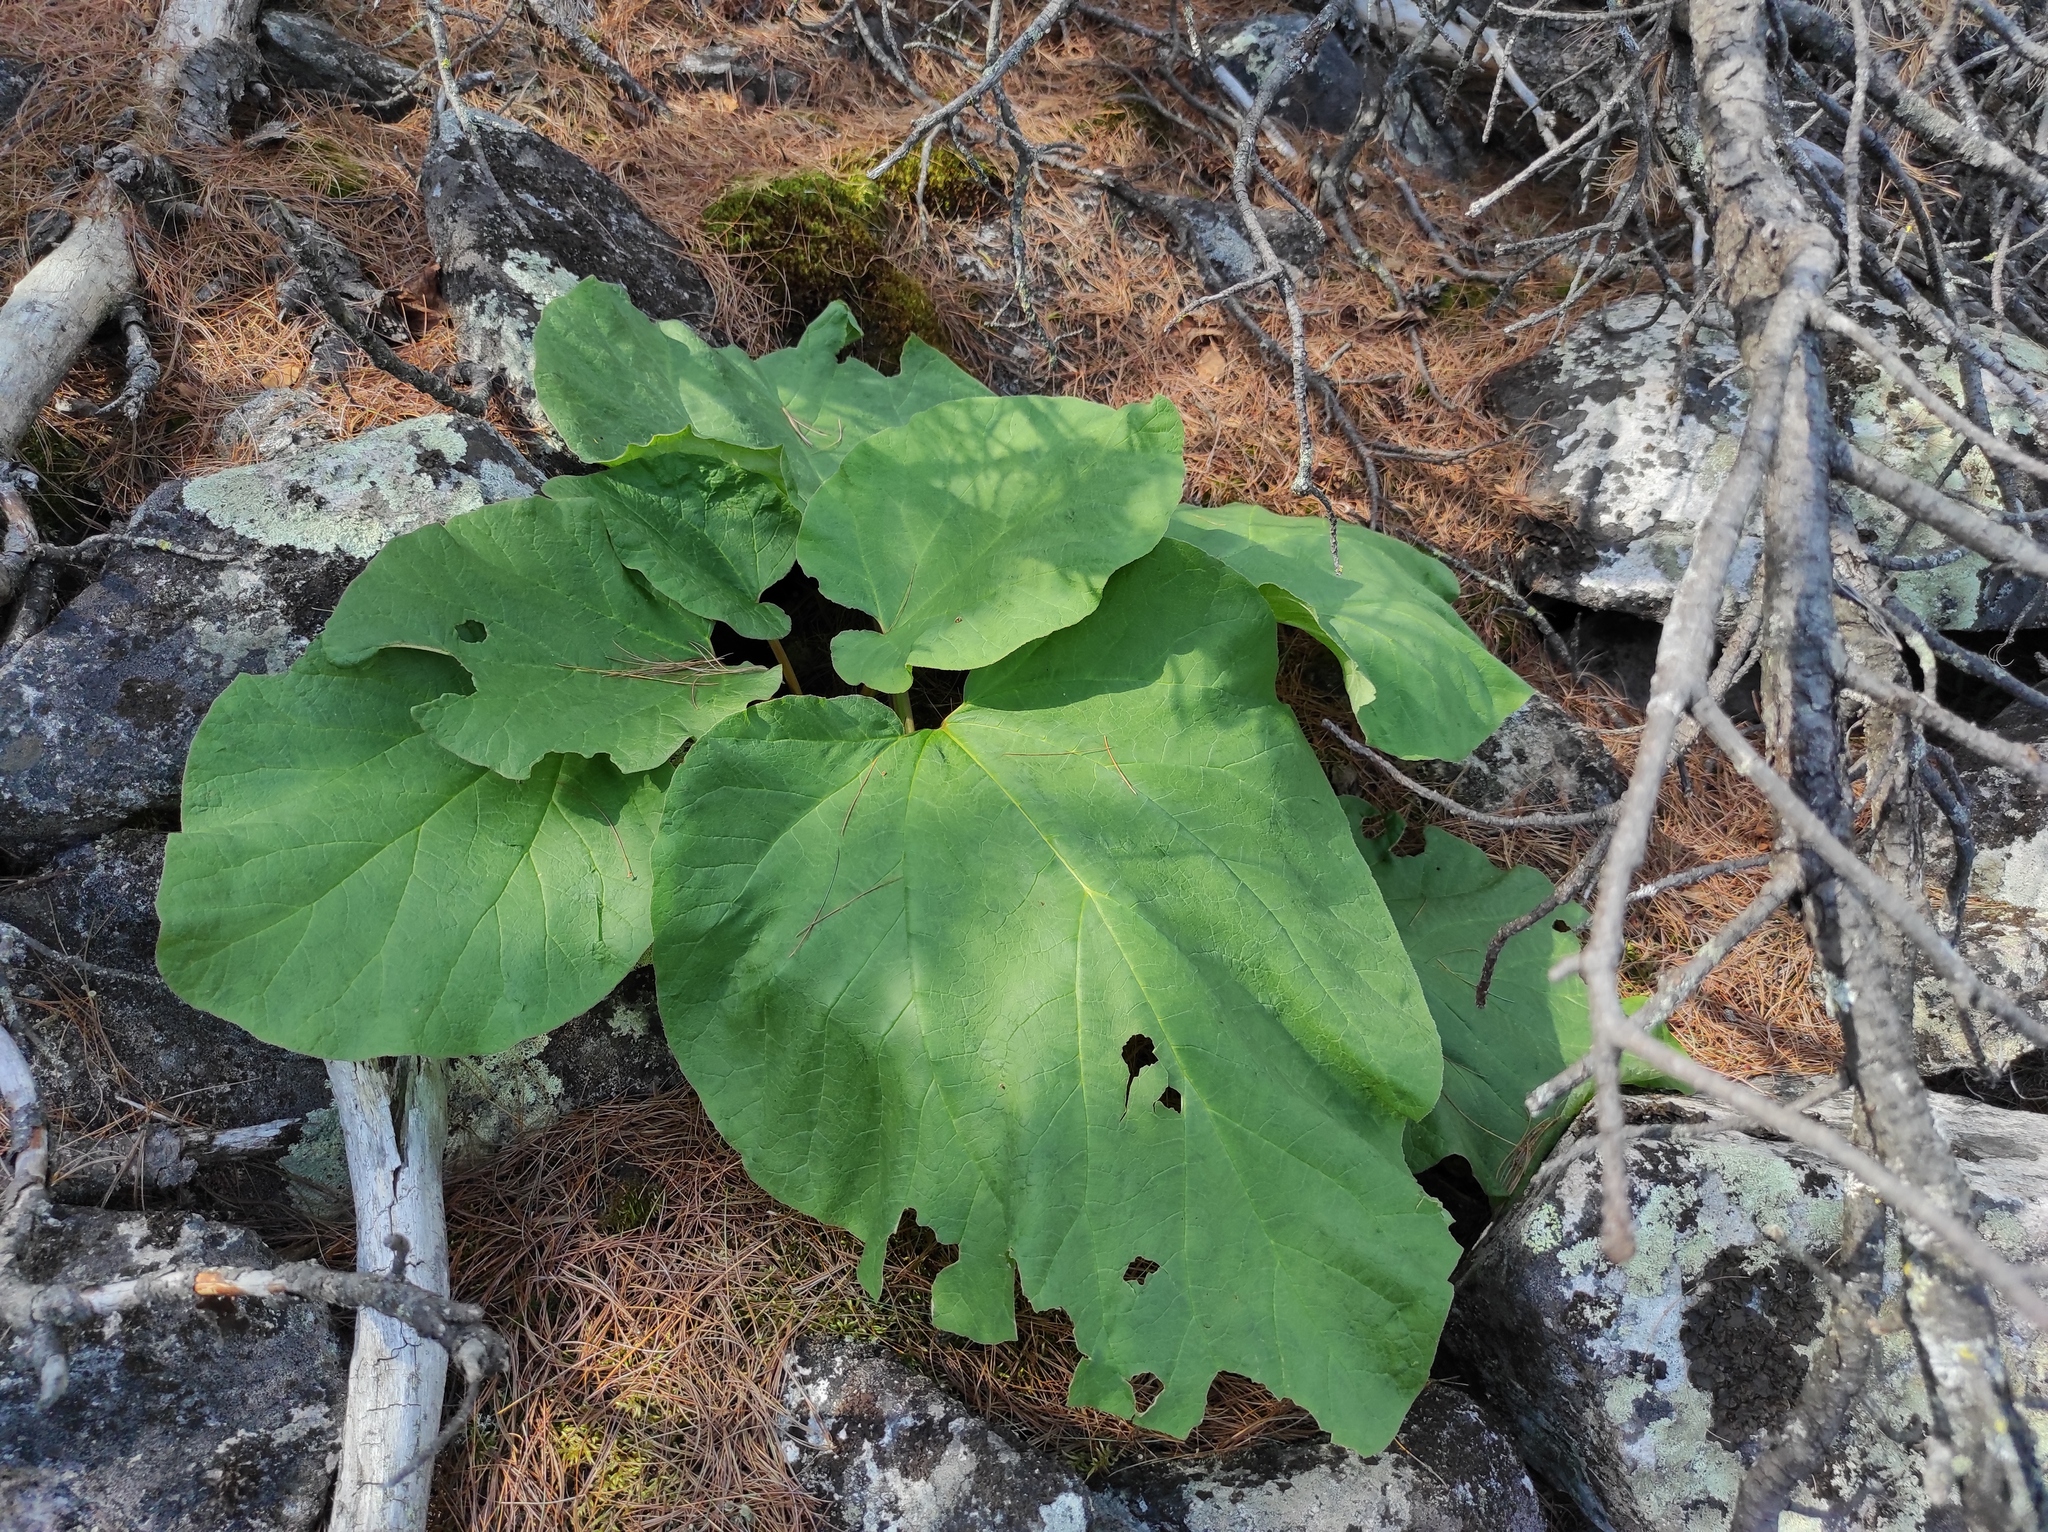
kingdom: Plantae
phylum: Tracheophyta
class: Magnoliopsida
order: Caryophyllales
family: Polygonaceae
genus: Rheum
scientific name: Rheum compactum
